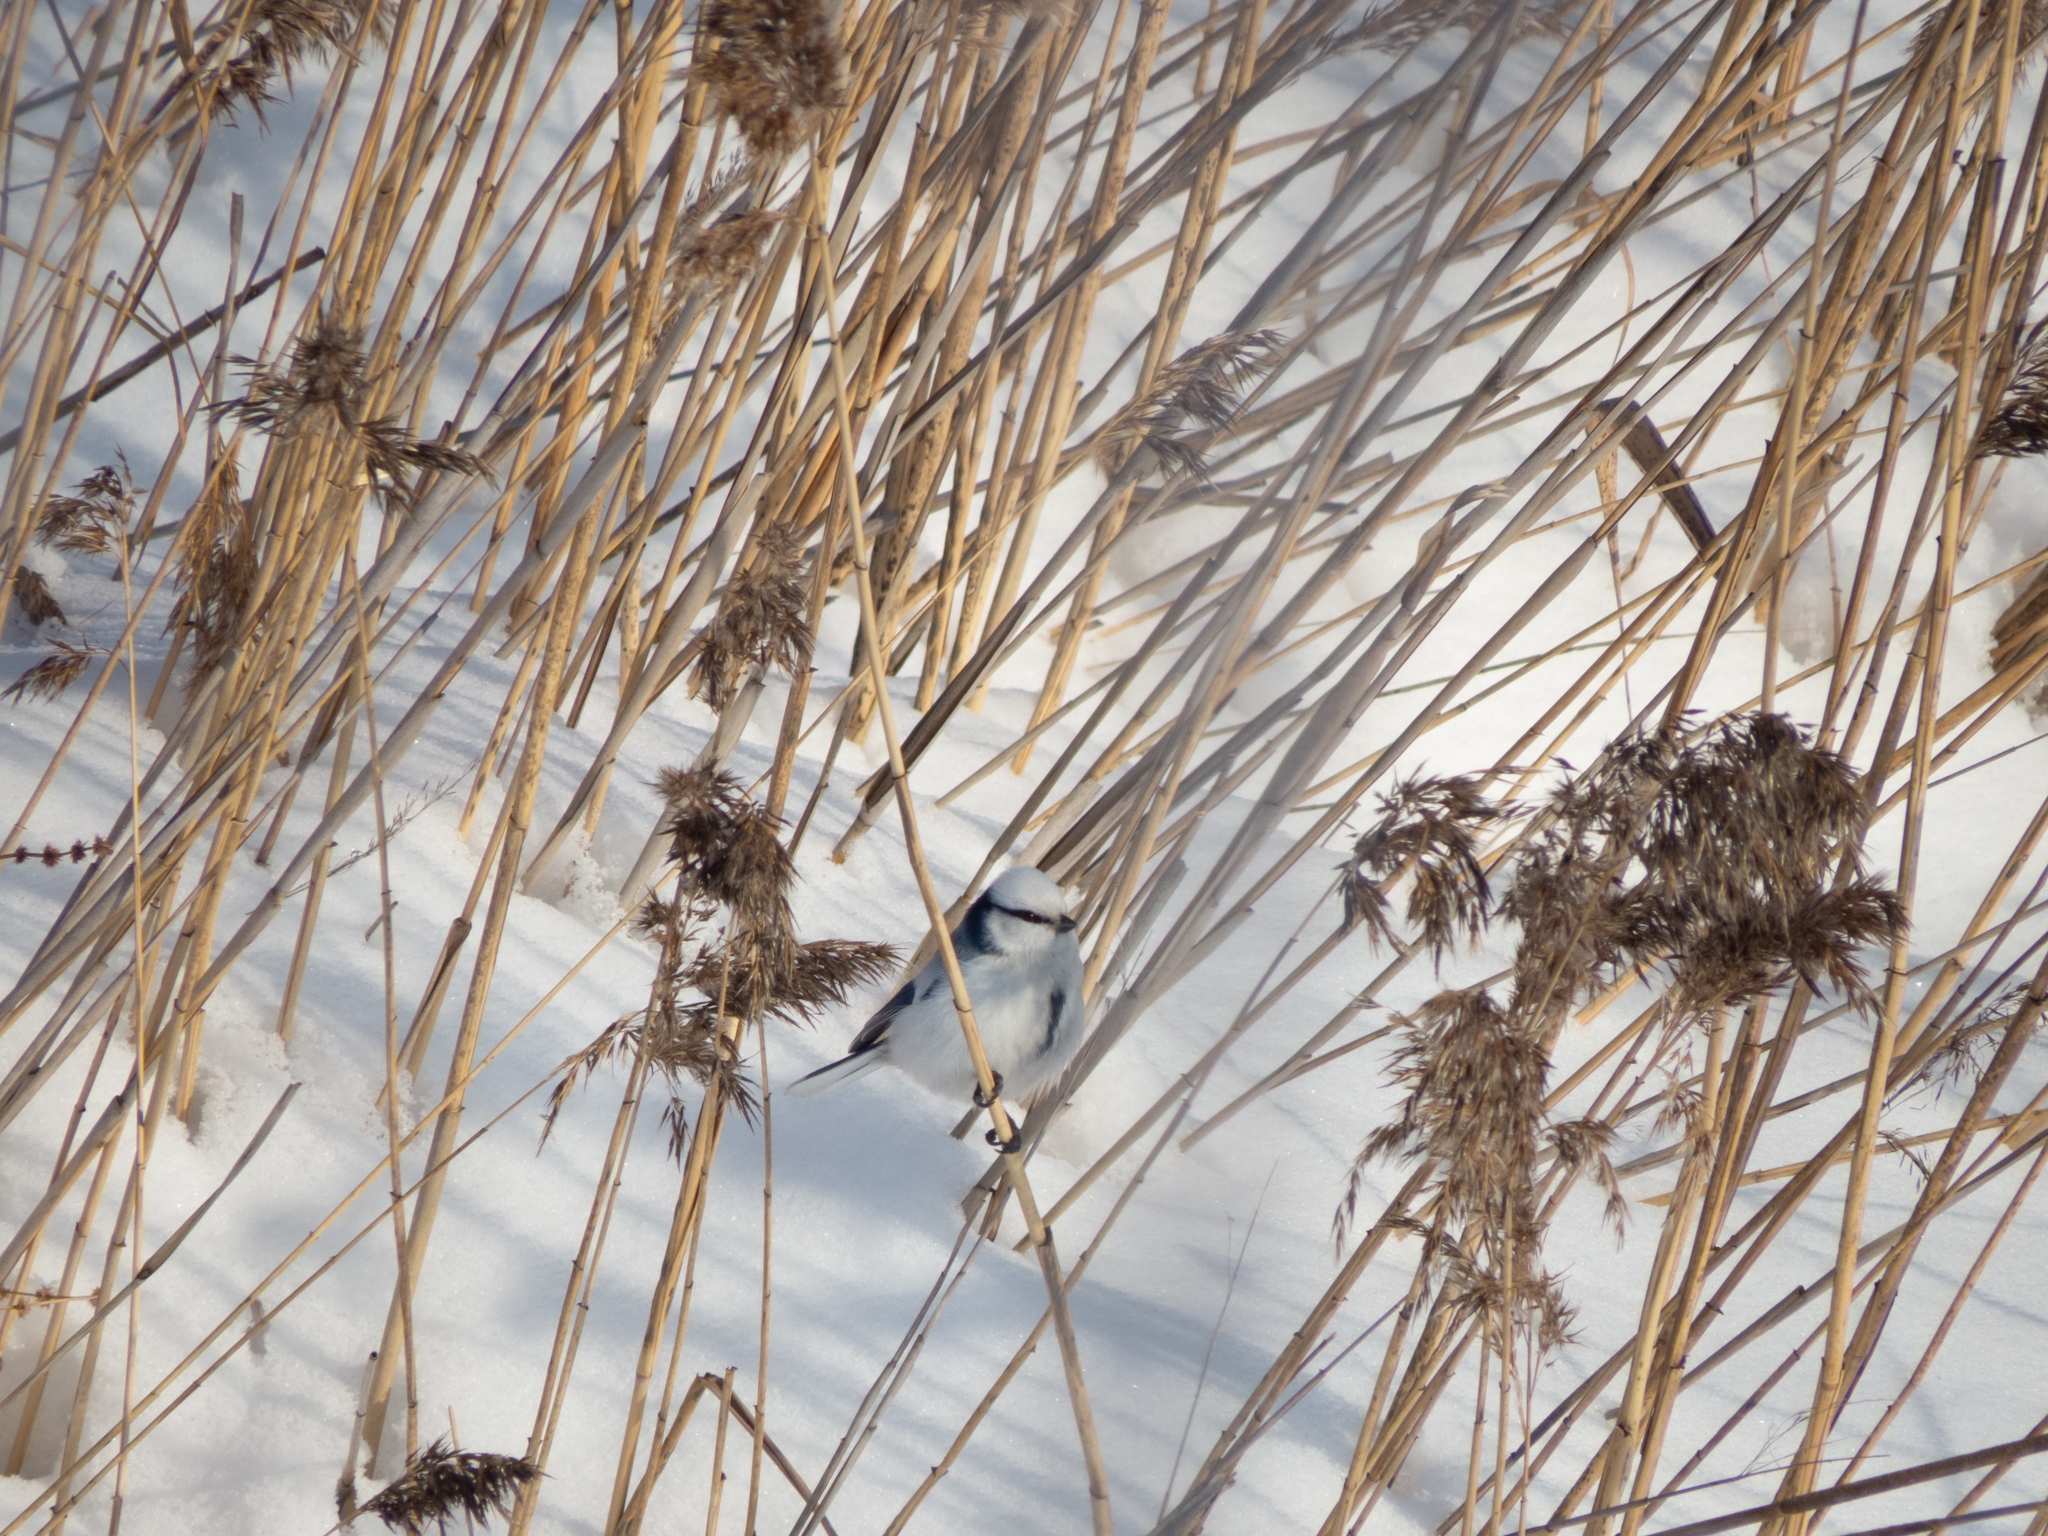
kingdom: Animalia
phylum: Chordata
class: Aves
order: Passeriformes
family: Paridae
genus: Cyanistes
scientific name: Cyanistes cyanus
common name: Azure tit
